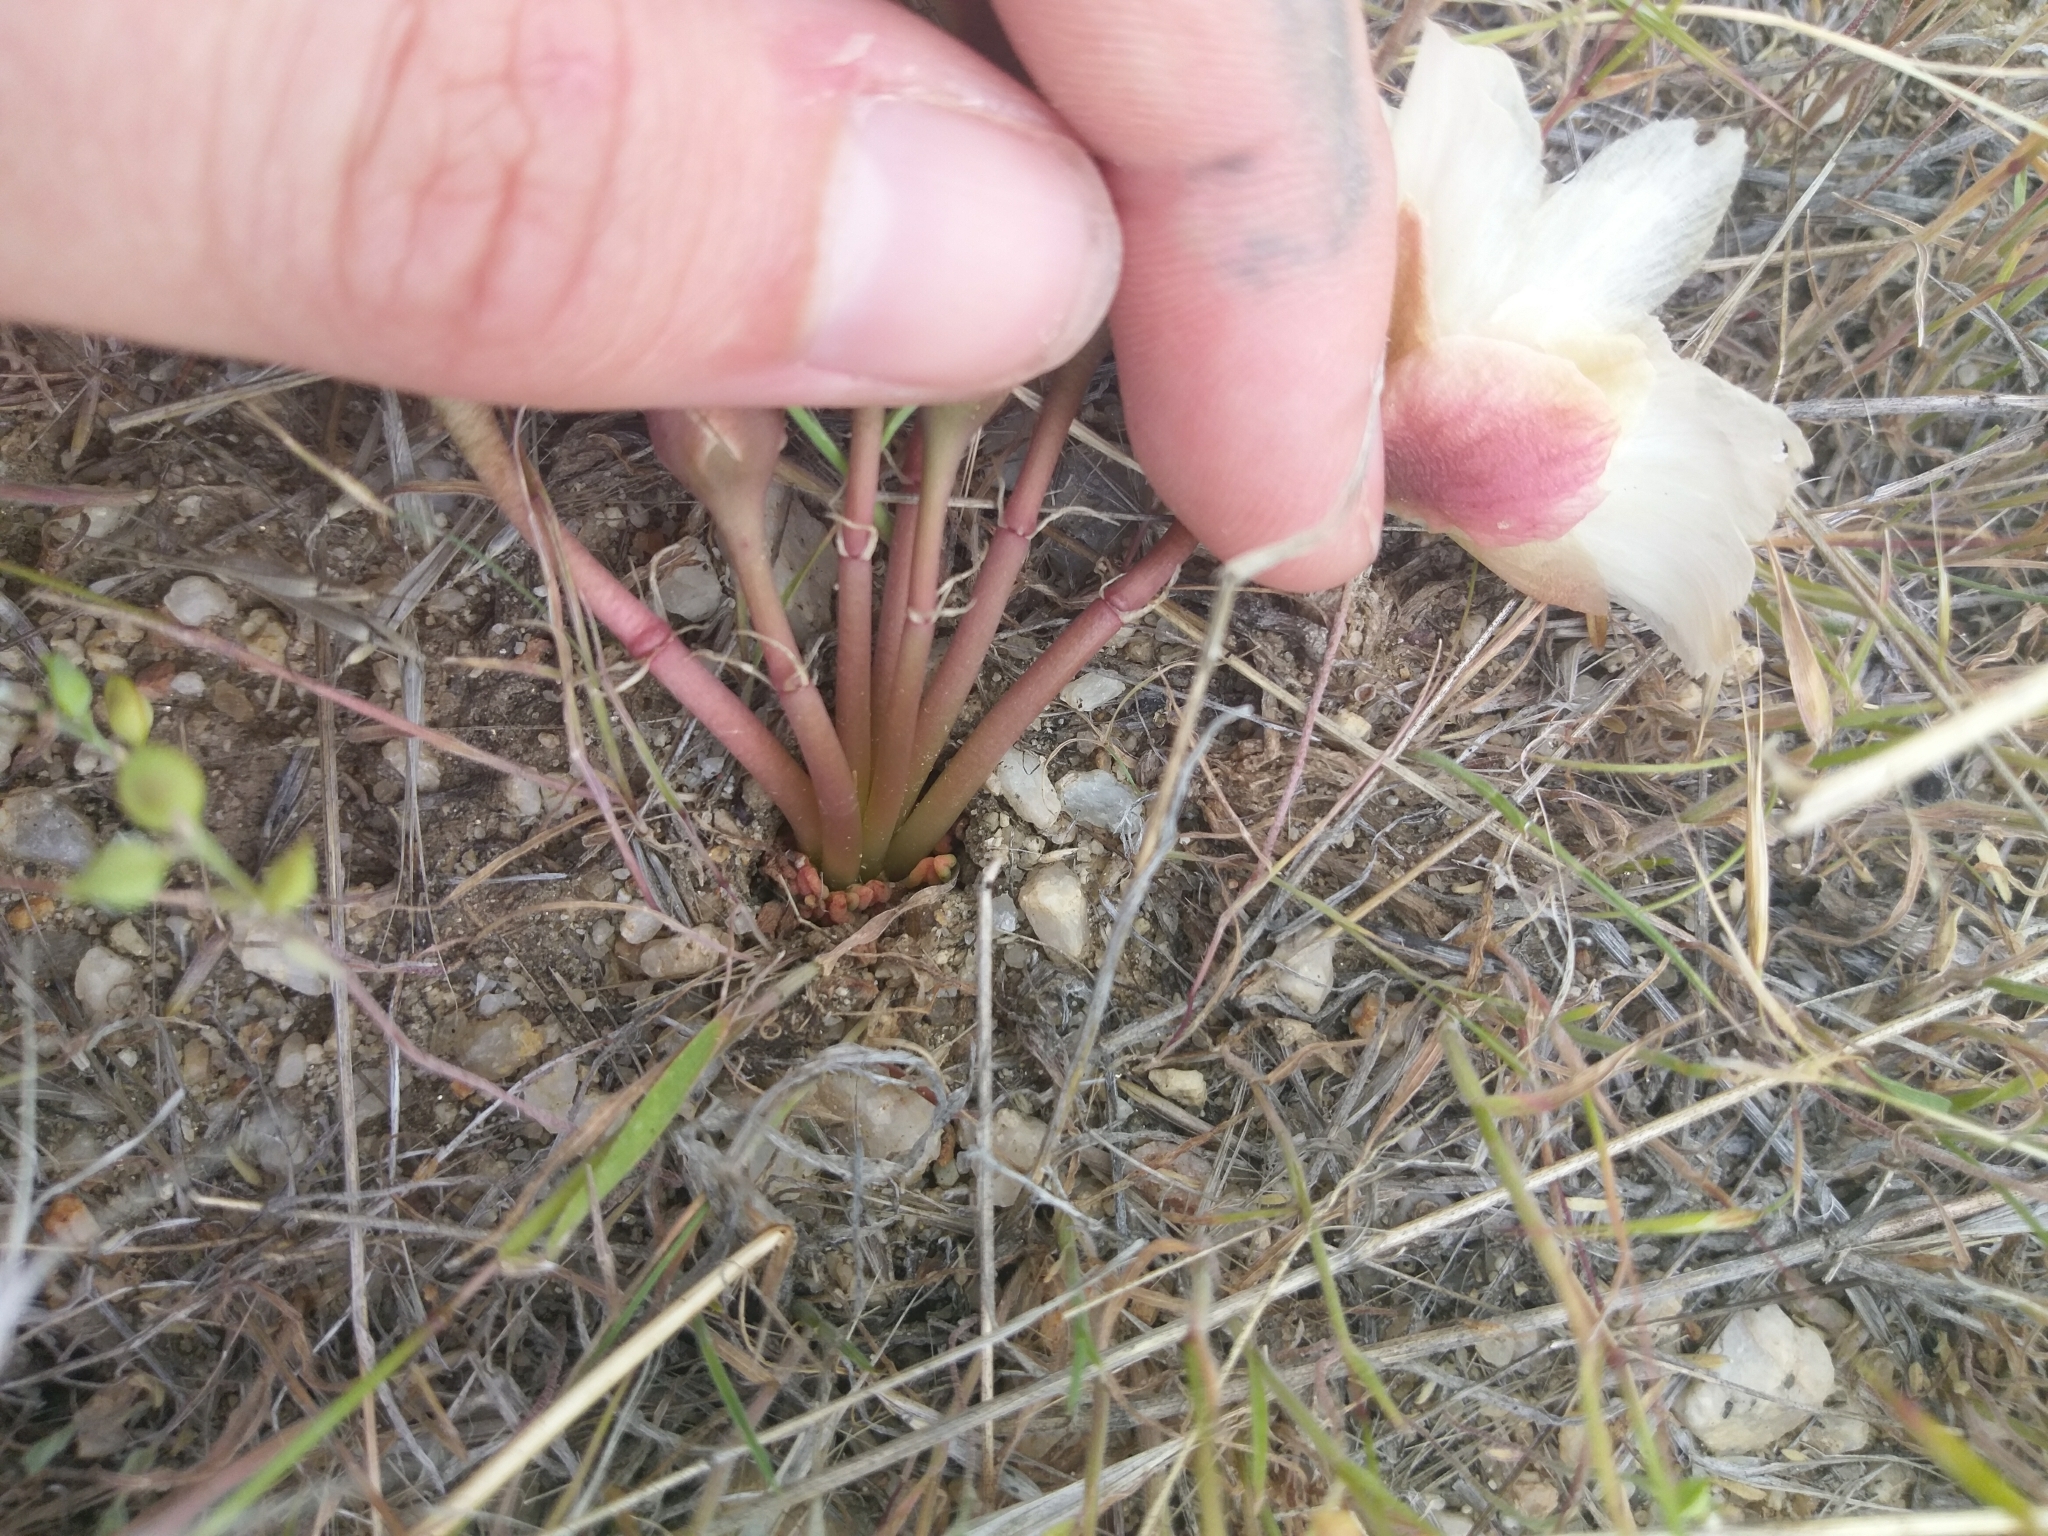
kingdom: Plantae
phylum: Tracheophyta
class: Magnoliopsida
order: Caryophyllales
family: Montiaceae
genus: Lewisia
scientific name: Lewisia rediviva
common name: Bitter-root
